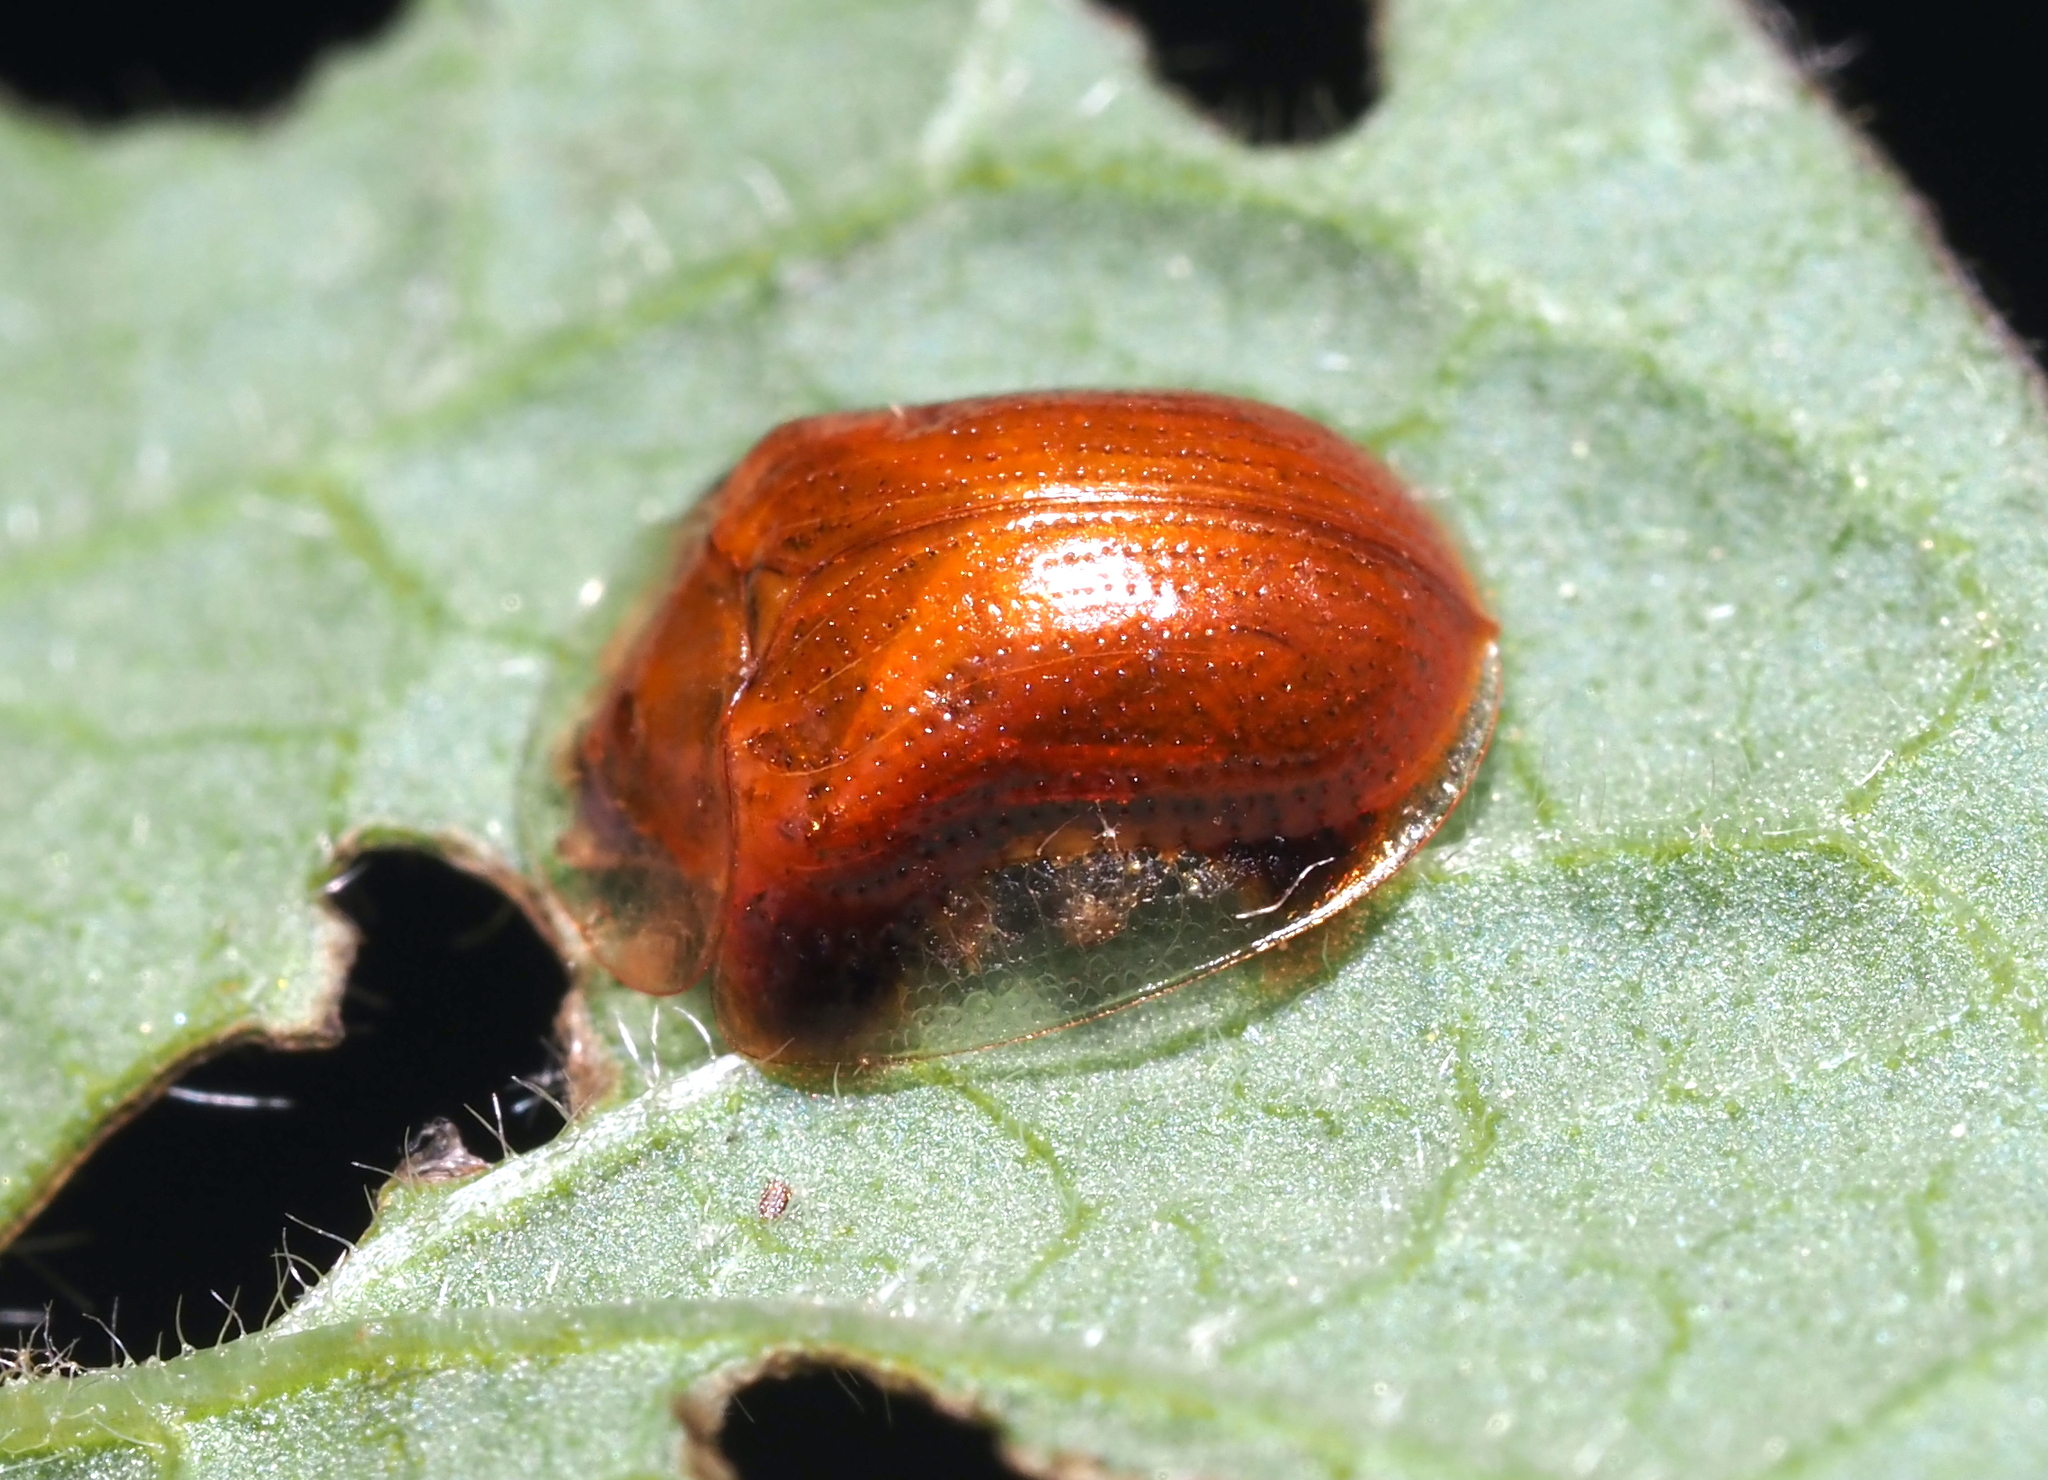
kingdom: Animalia
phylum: Arthropoda
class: Insecta
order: Coleoptera
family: Chrysomelidae
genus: Charidotella
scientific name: Charidotella purpurata
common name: Small orange tortoise beetle
